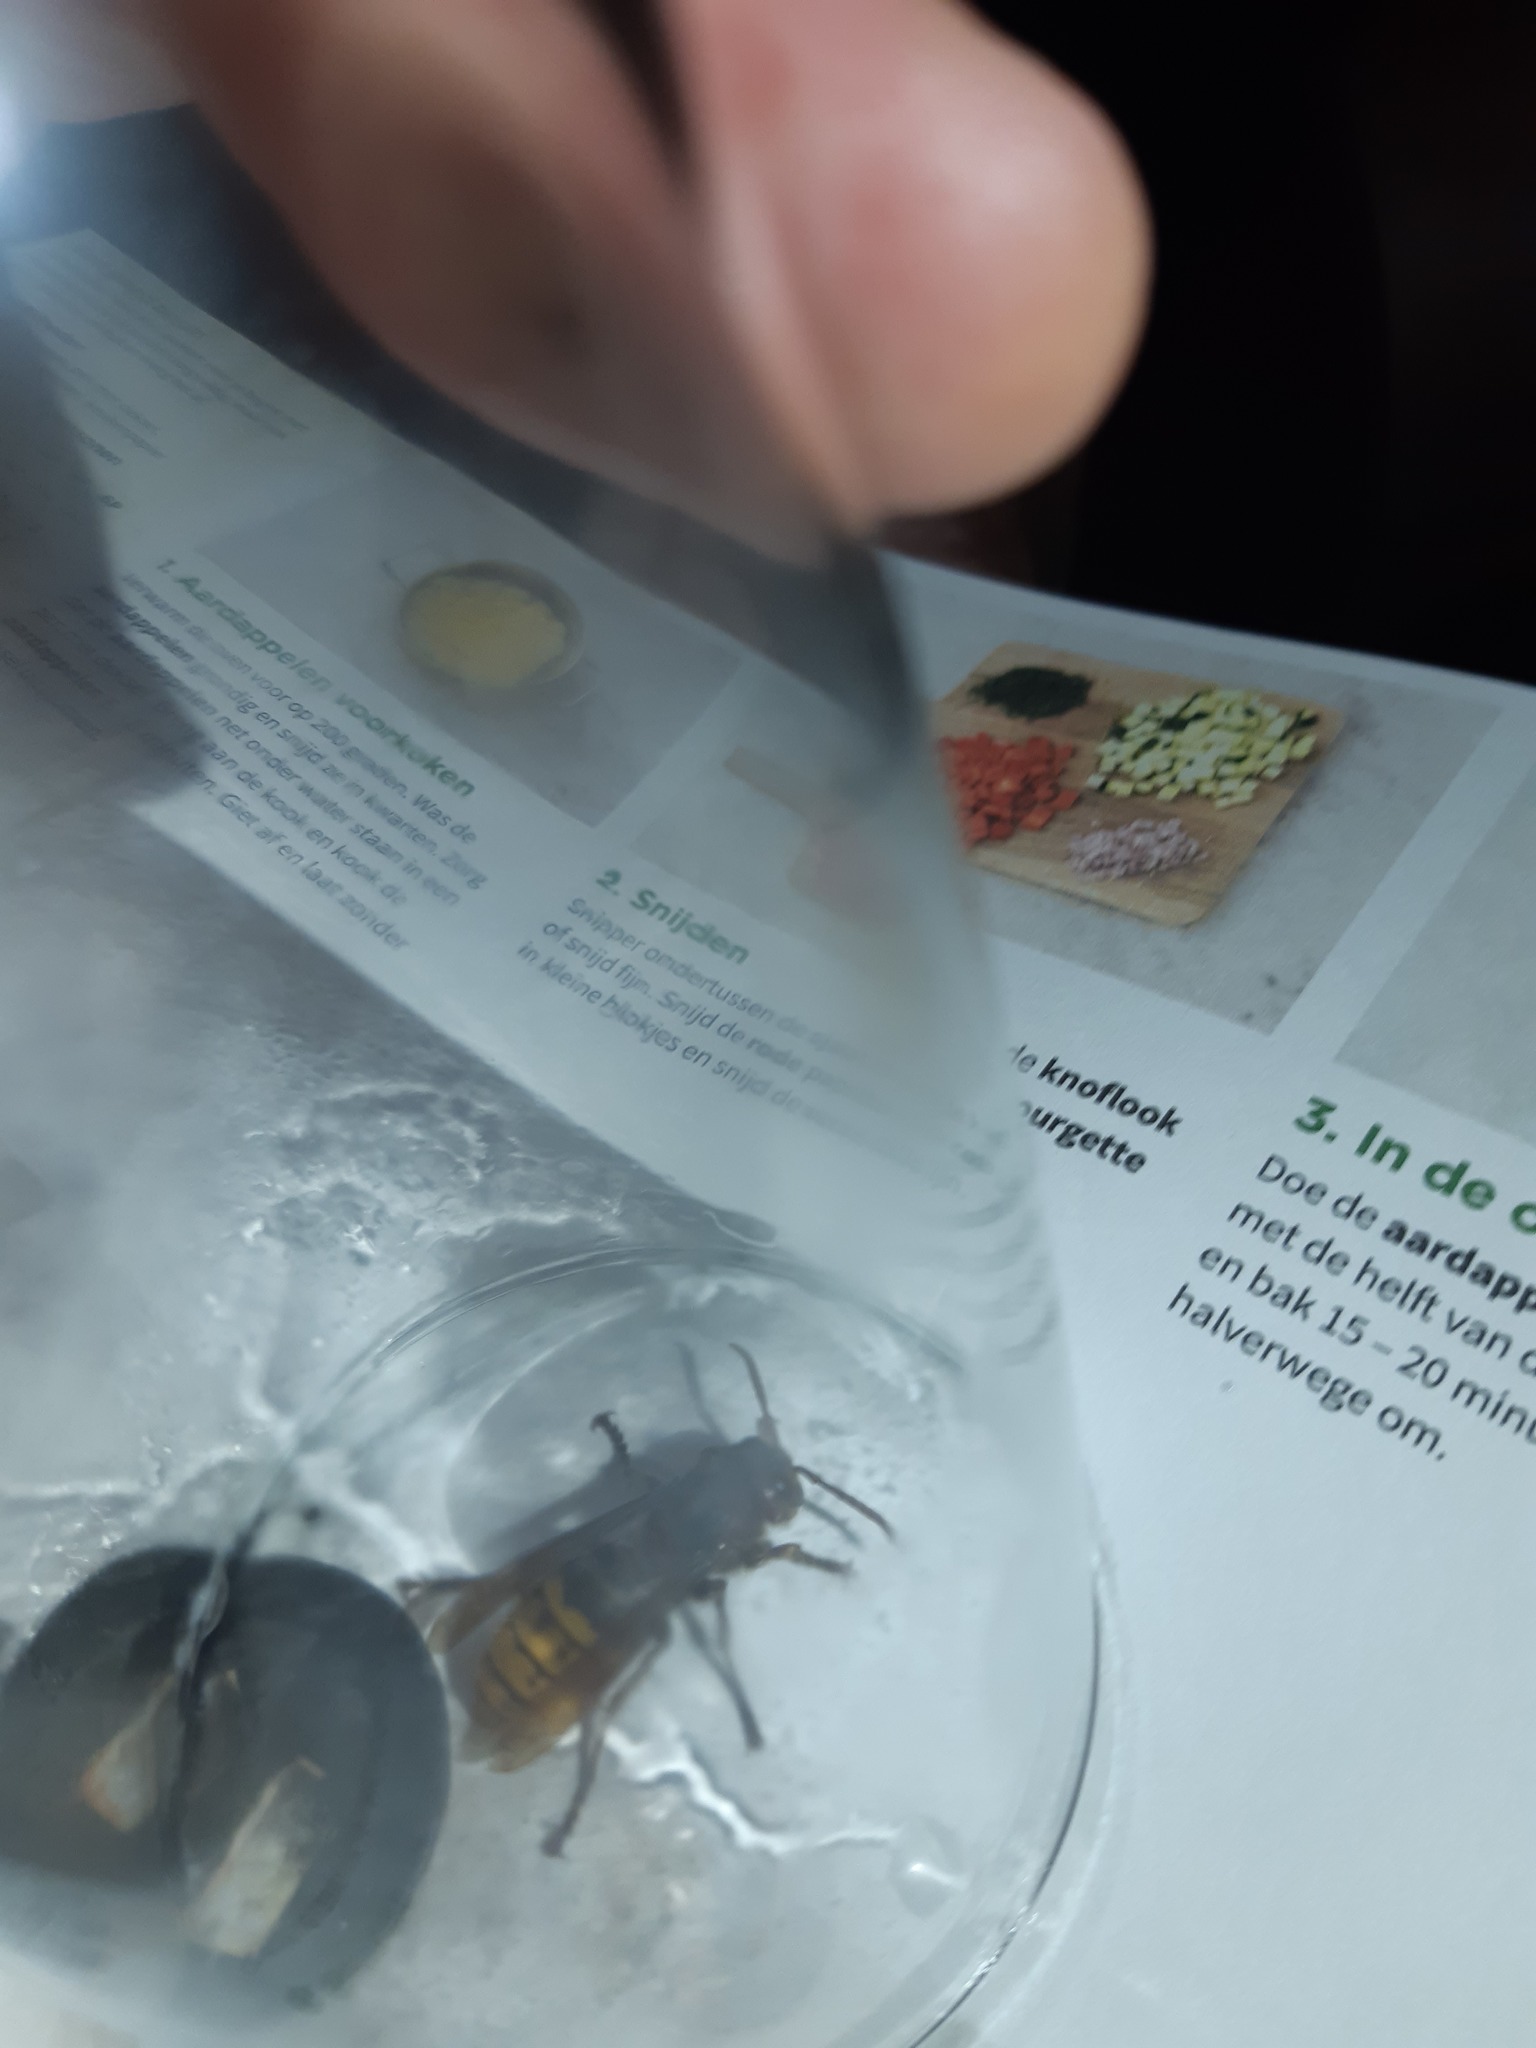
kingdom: Animalia
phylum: Arthropoda
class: Insecta
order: Hymenoptera
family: Vespidae
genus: Vespa
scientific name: Vespa crabro
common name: Hornet
